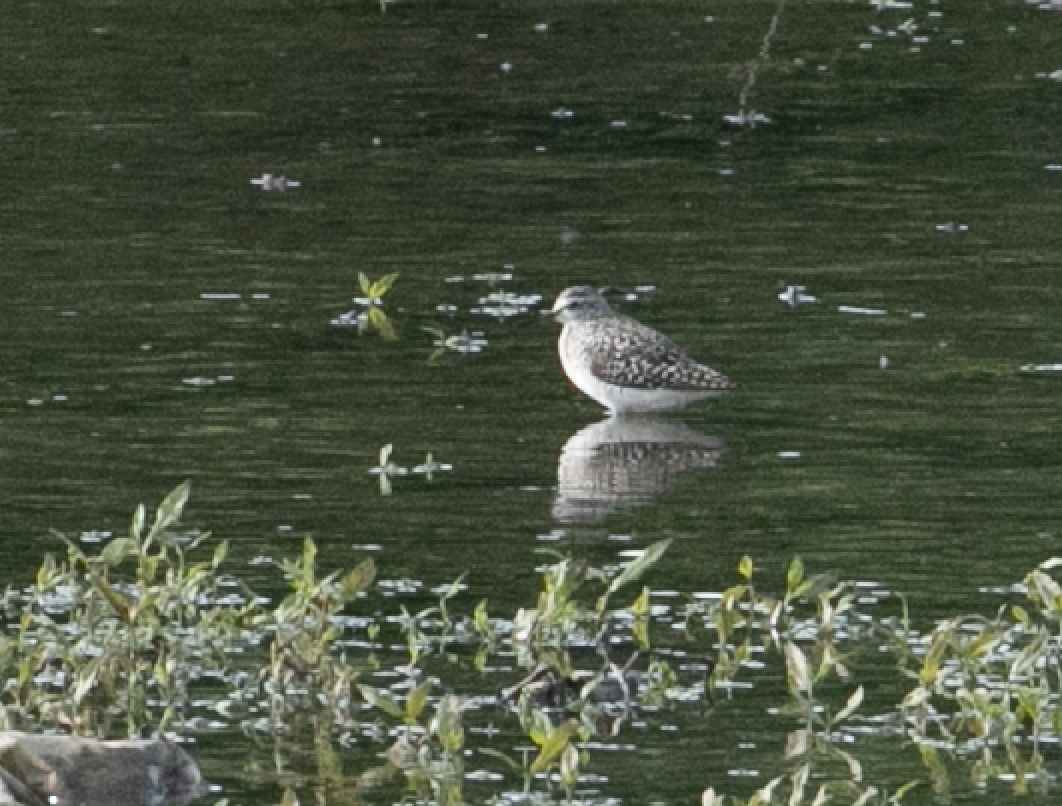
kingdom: Animalia
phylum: Chordata
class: Aves
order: Charadriiformes
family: Scolopacidae
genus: Tringa
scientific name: Tringa glareola
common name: Wood sandpiper
